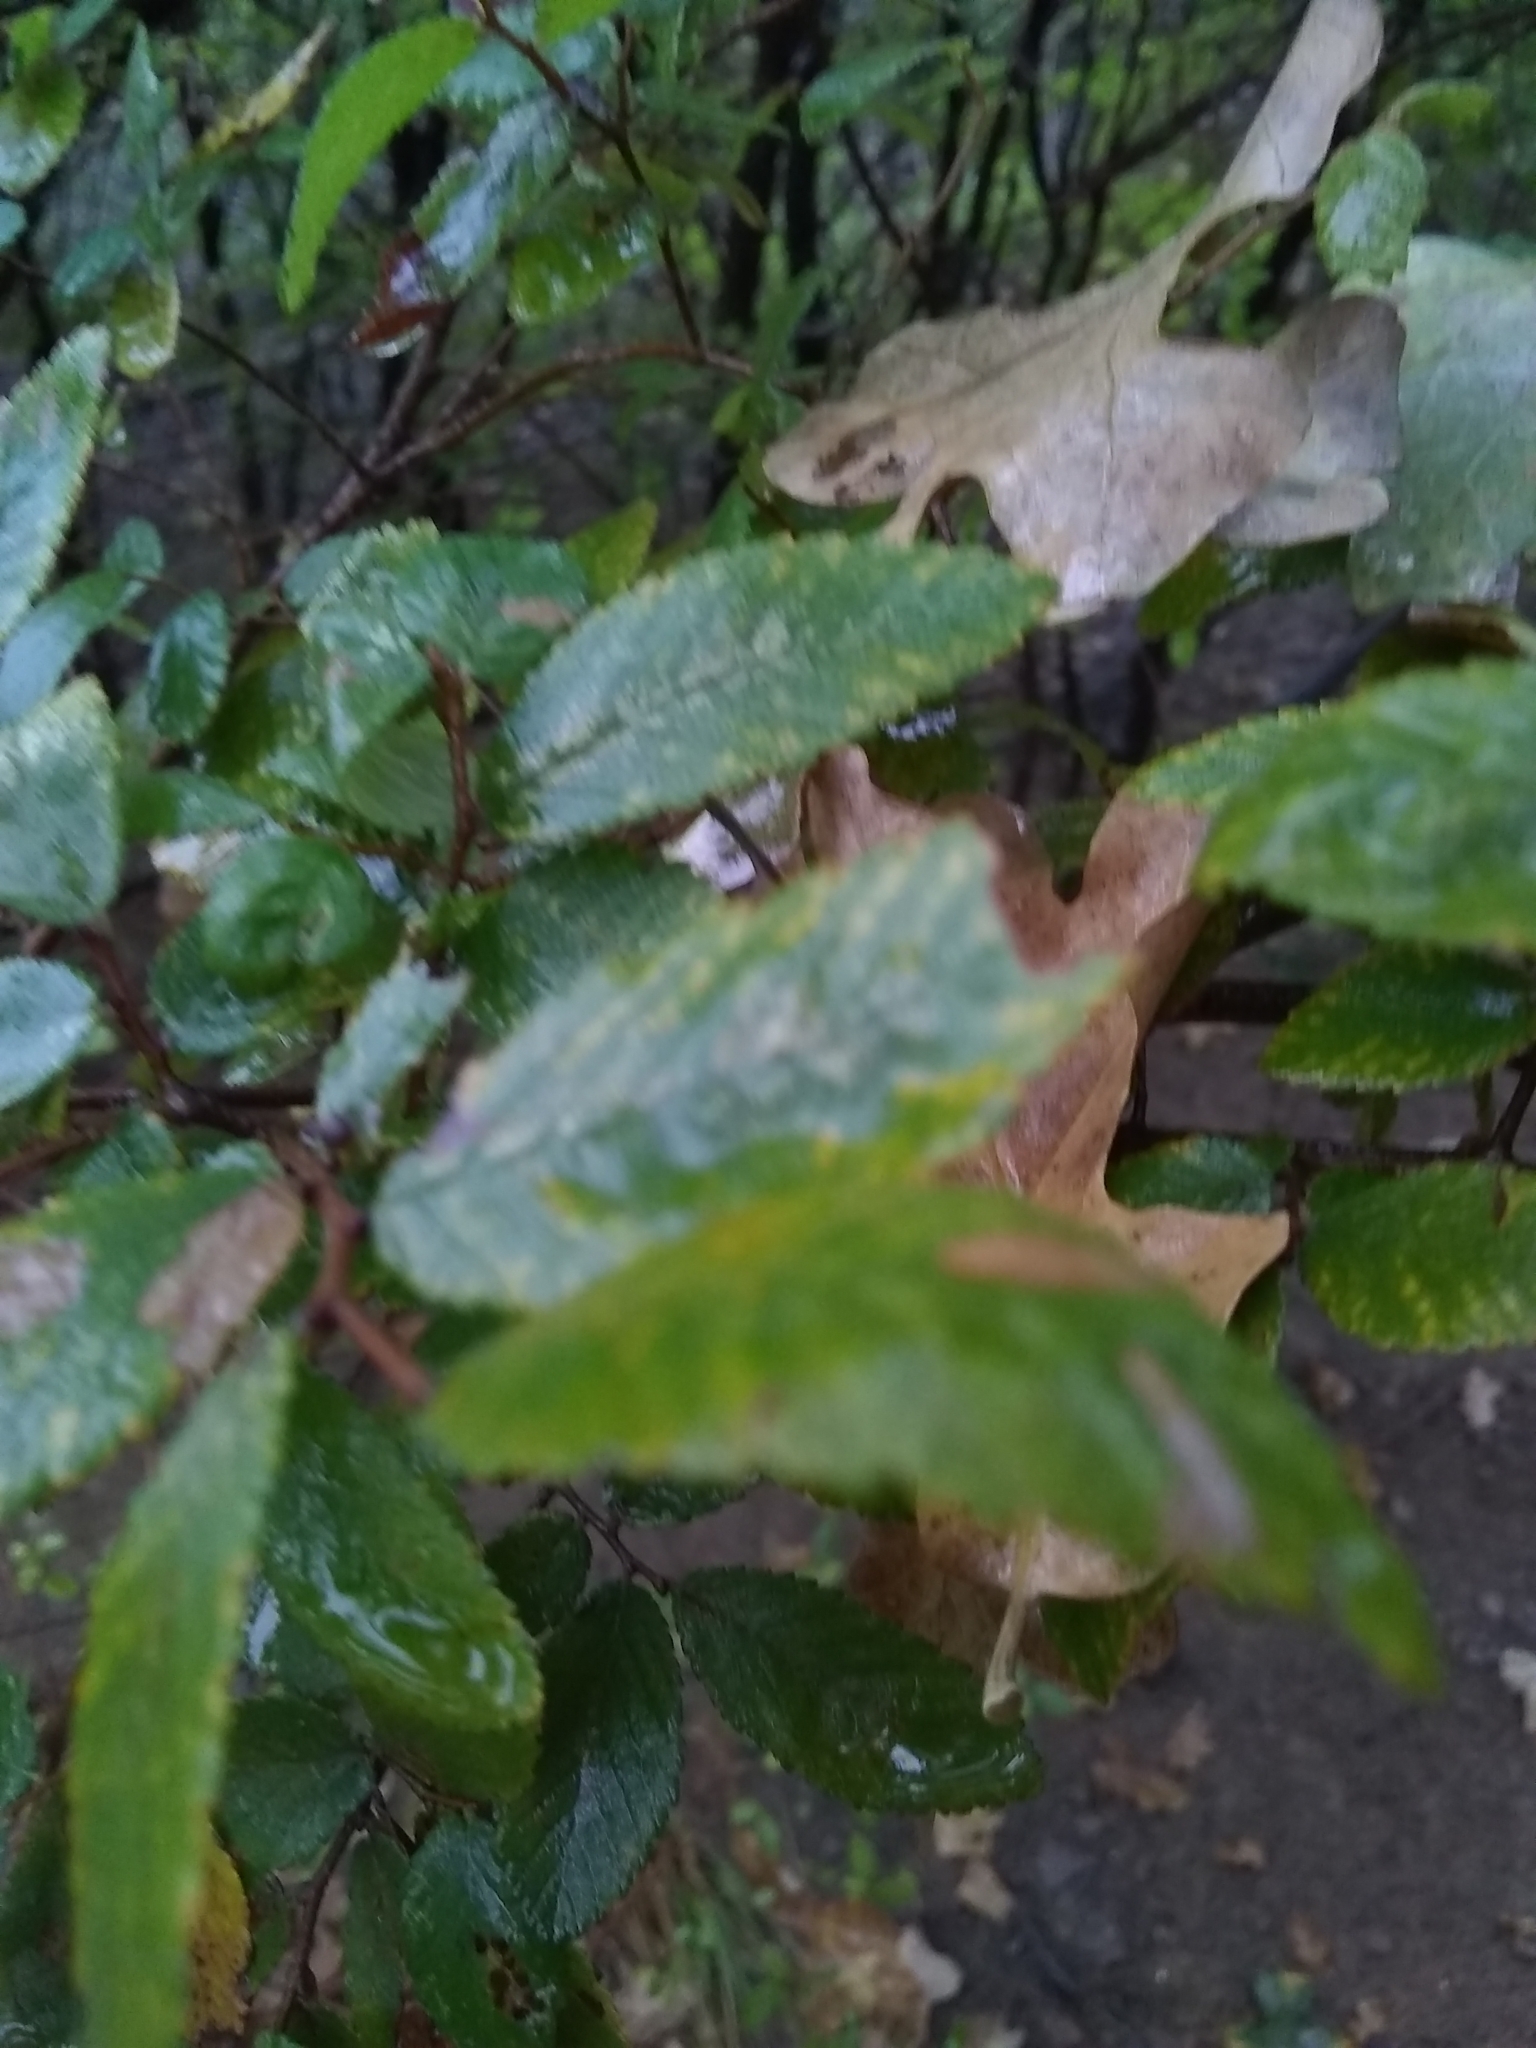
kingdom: Plantae
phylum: Tracheophyta
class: Magnoliopsida
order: Rosales
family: Ulmaceae
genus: Ulmus
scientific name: Ulmus crassifolia
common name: Basket elm
